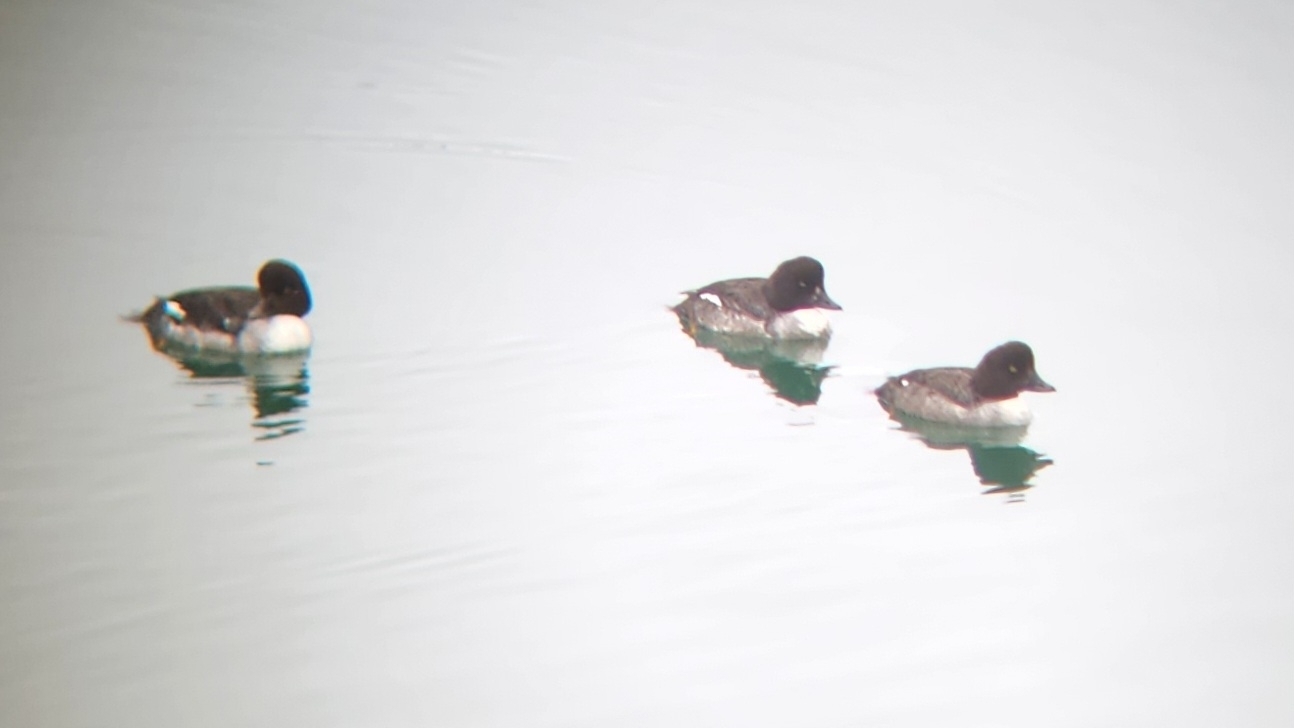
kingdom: Animalia
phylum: Chordata
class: Aves
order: Anseriformes
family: Anatidae
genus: Bucephala
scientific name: Bucephala islandica
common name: Barrow's goldeneye
